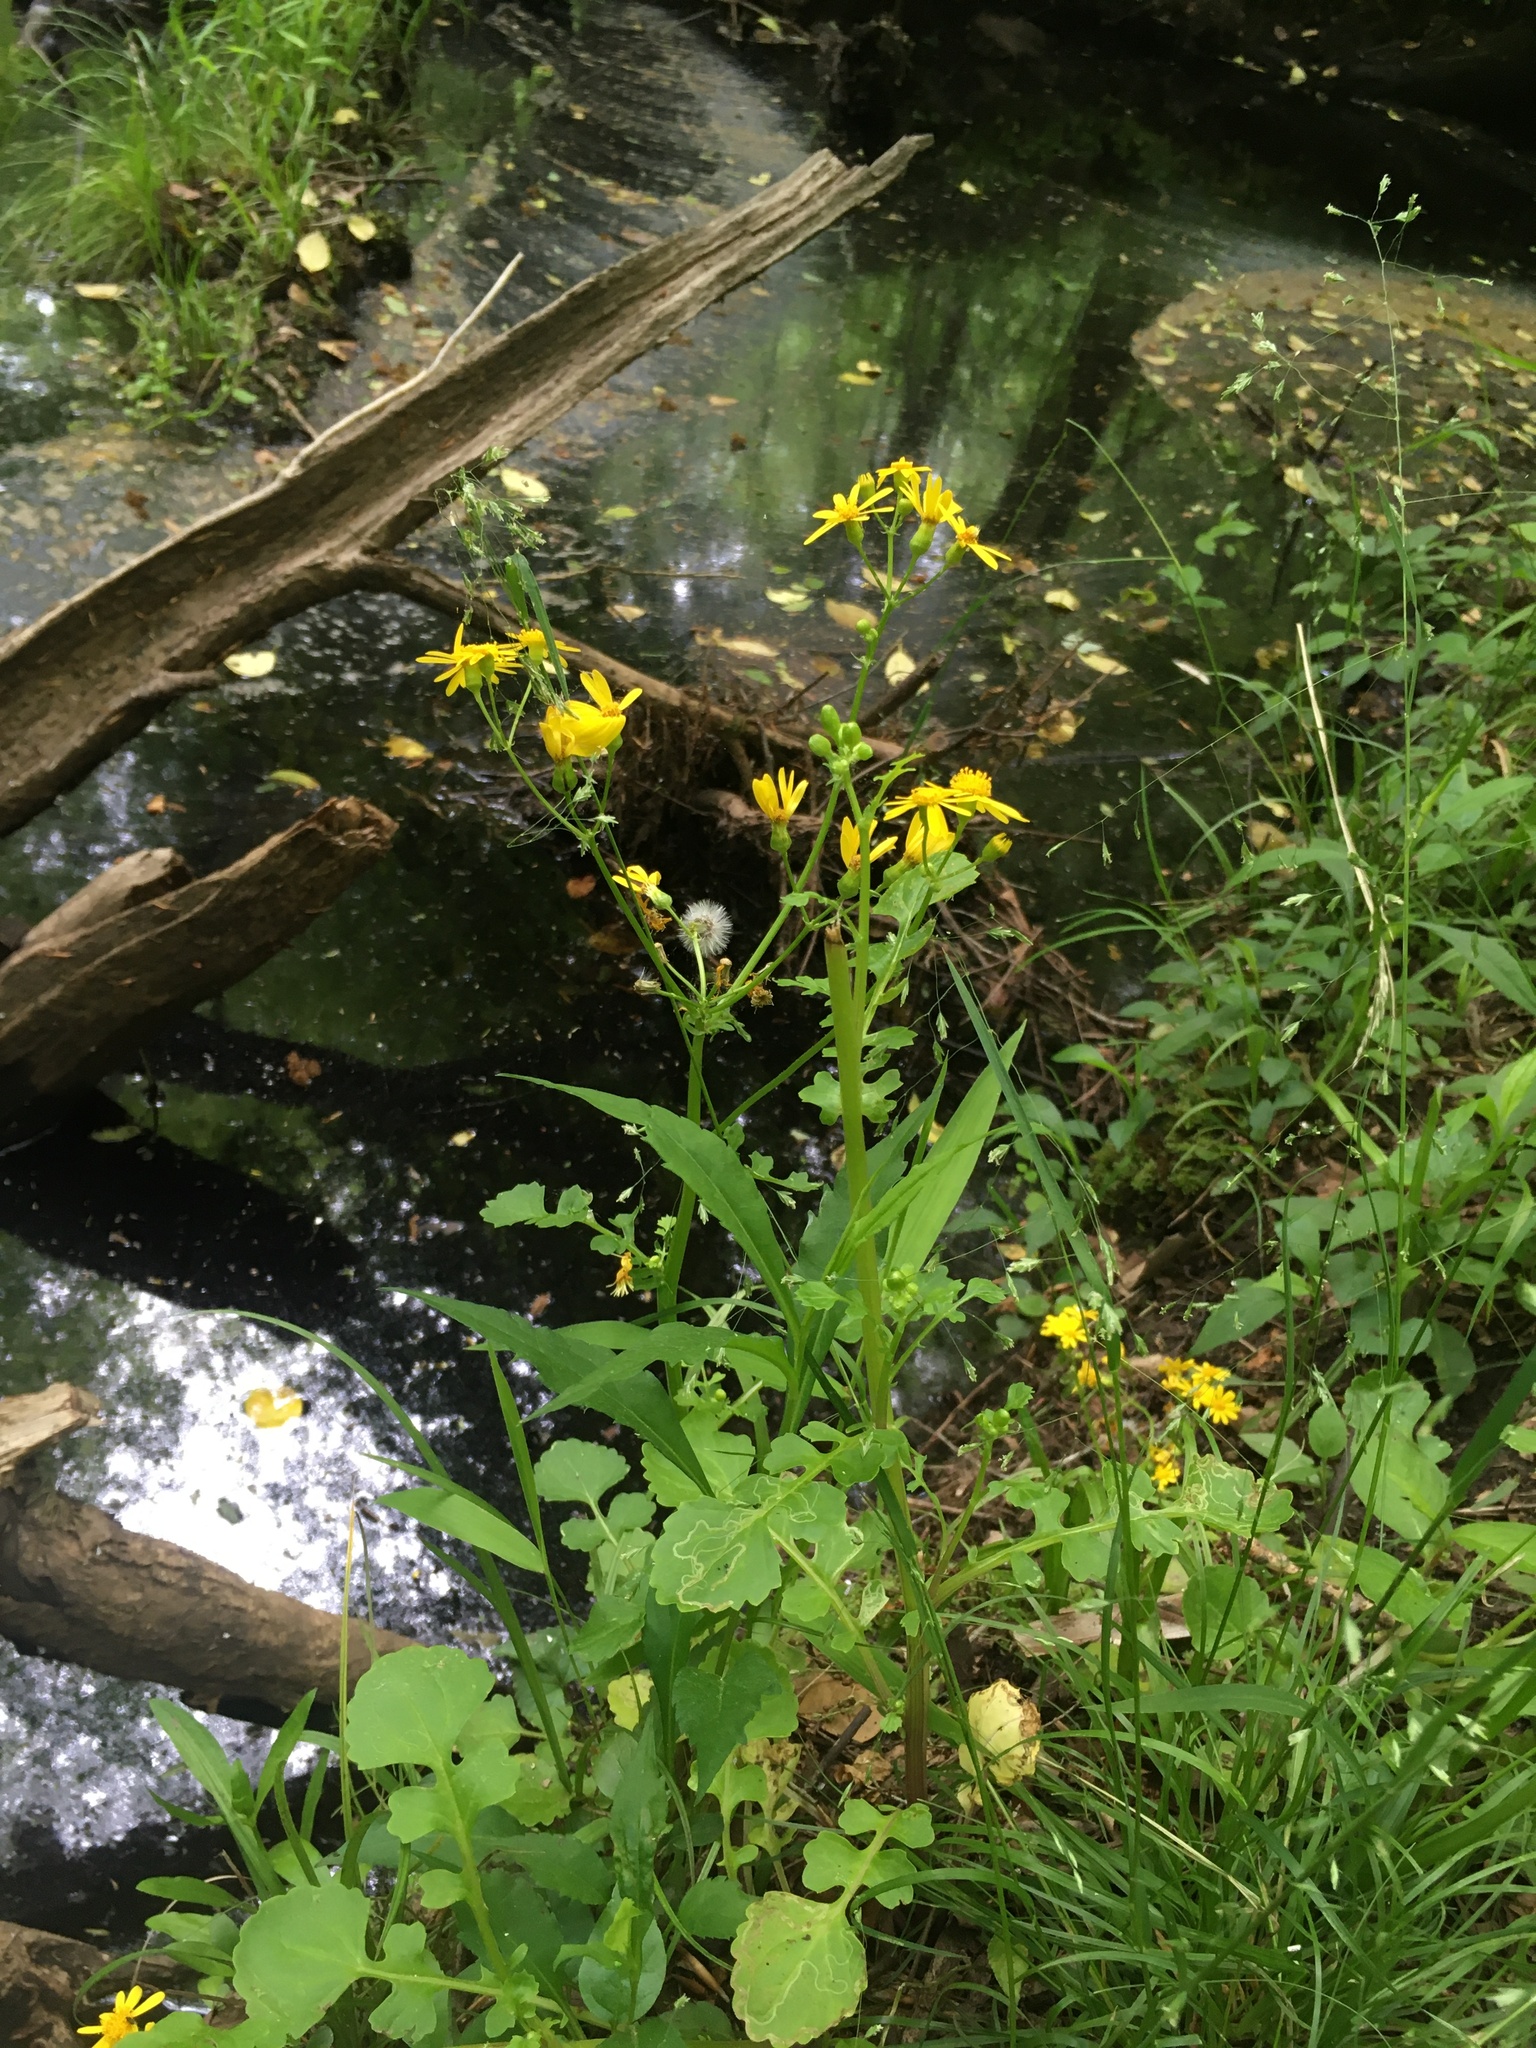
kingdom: Plantae
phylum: Tracheophyta
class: Magnoliopsida
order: Asterales
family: Asteraceae
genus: Packera
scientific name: Packera glabella
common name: Butterweed
